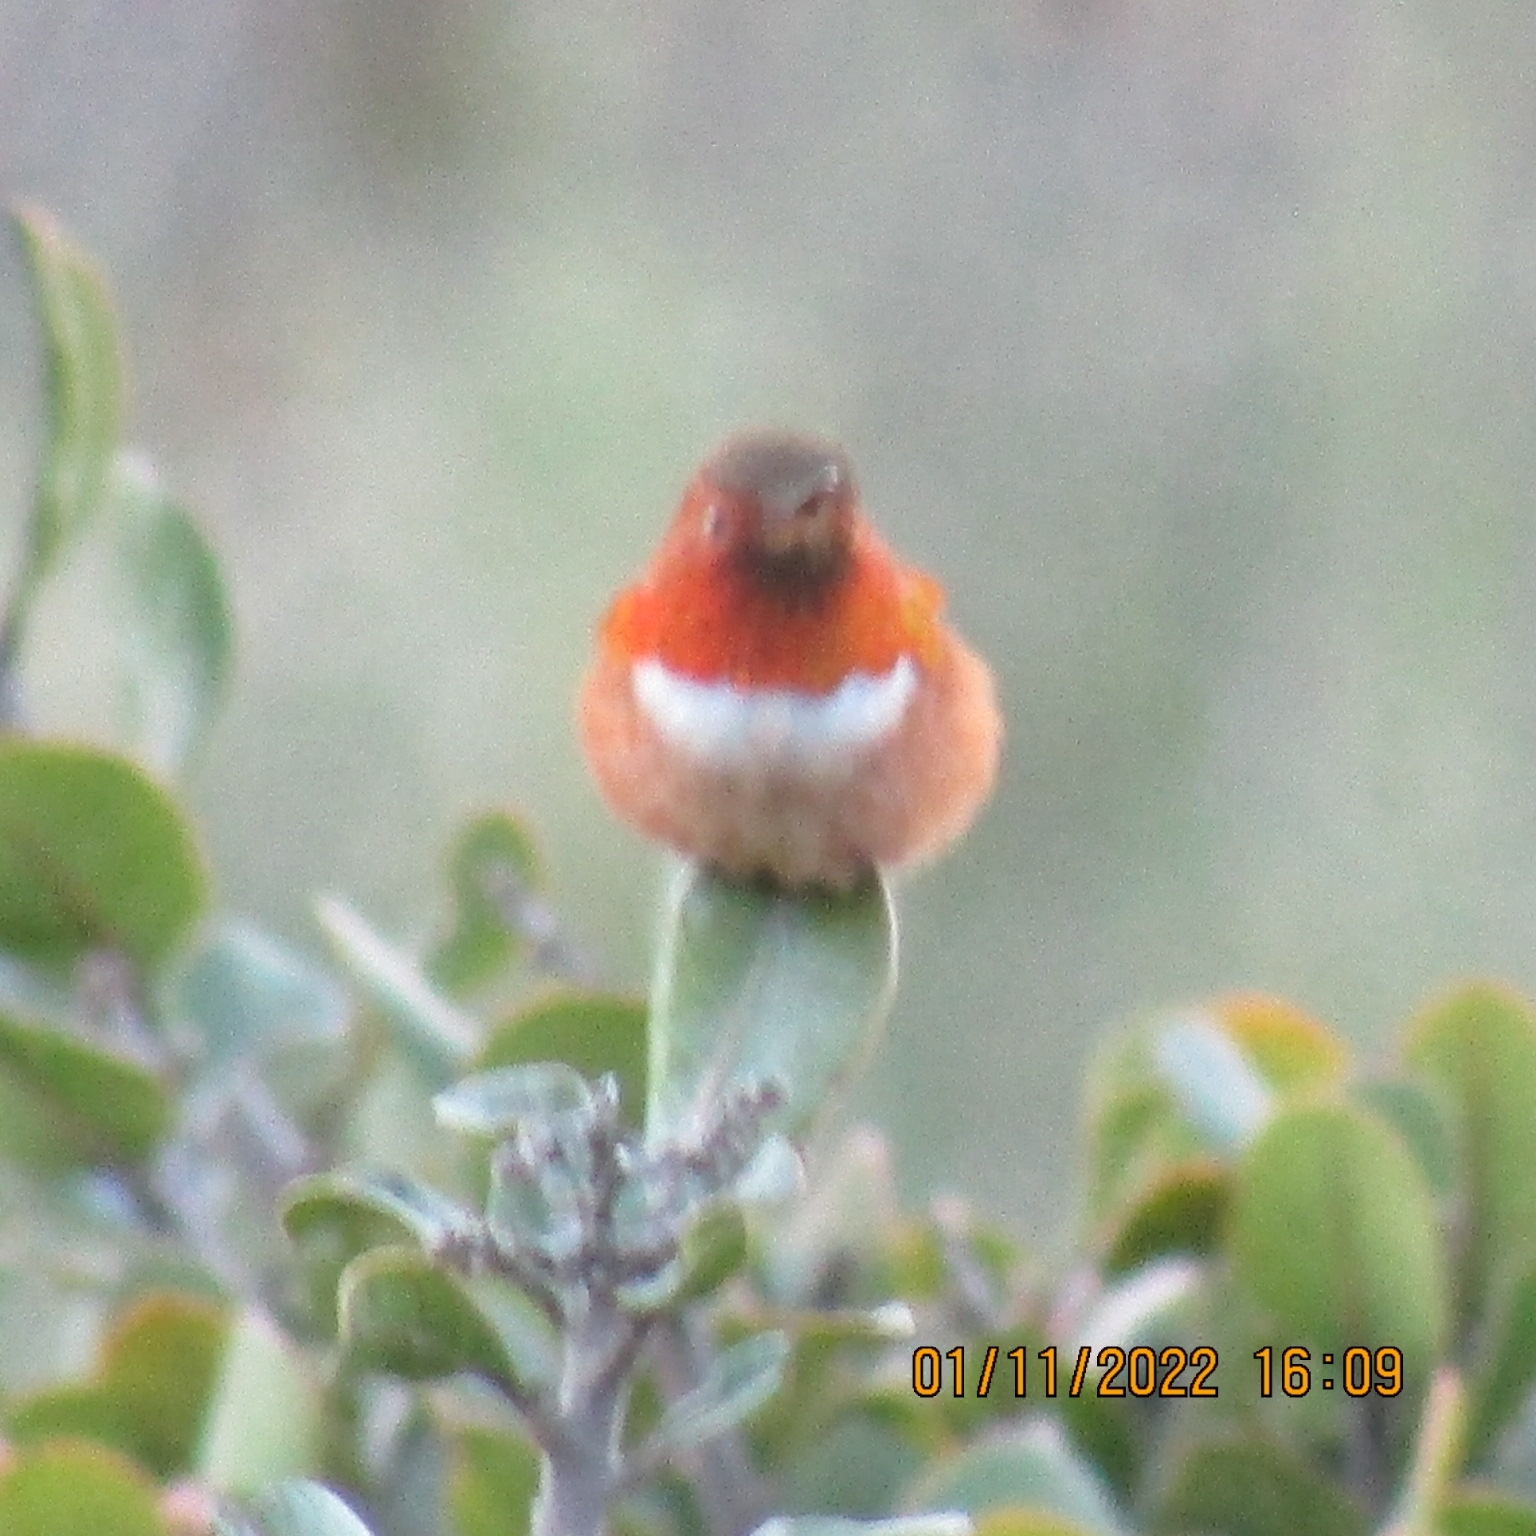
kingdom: Animalia
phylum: Chordata
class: Aves
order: Apodiformes
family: Trochilidae
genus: Selasphorus
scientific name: Selasphorus sasin
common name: Allen's hummingbird
